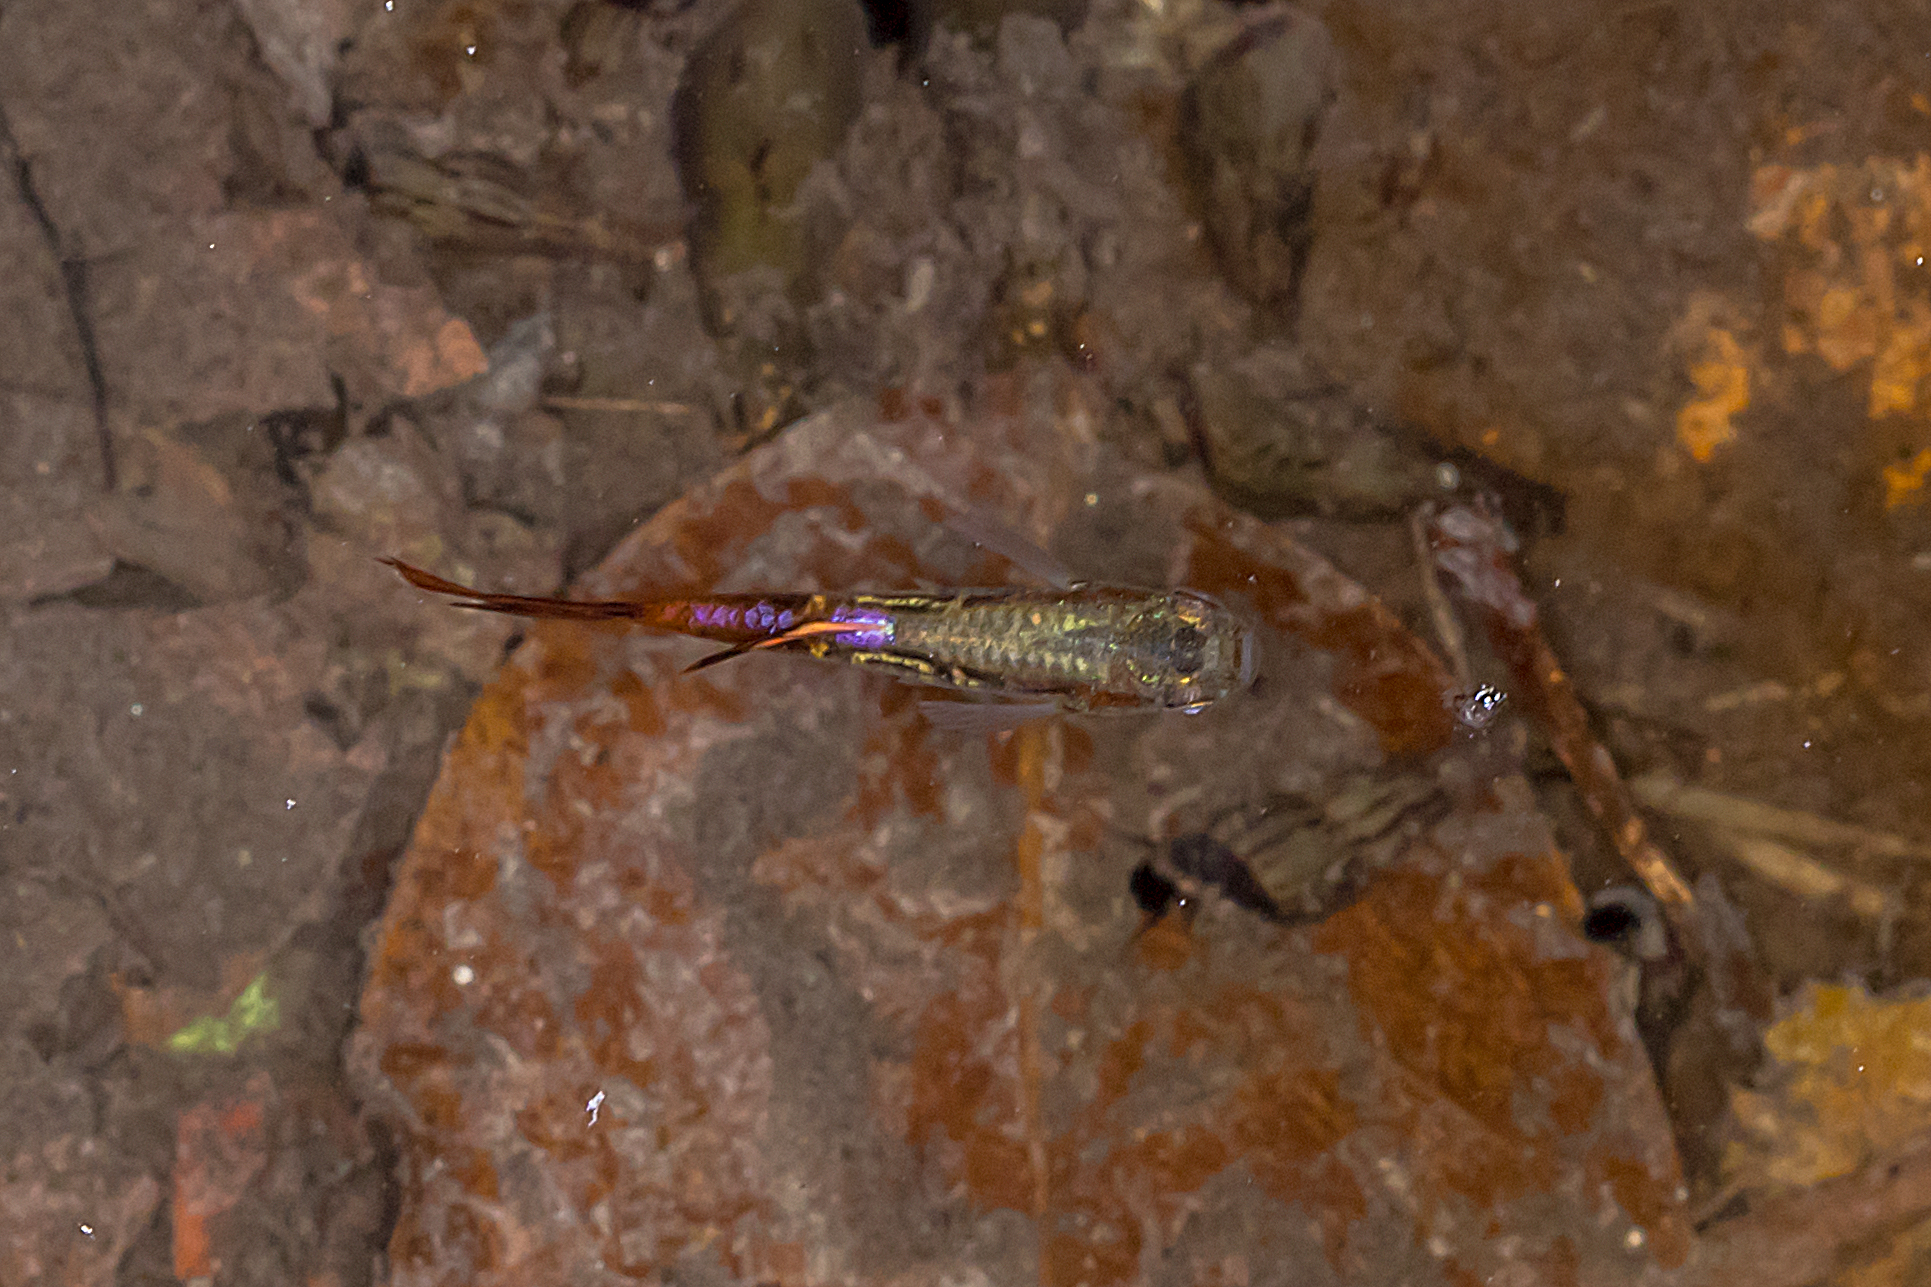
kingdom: Animalia
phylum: Chordata
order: Cyprinodontiformes
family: Poeciliidae
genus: Poecilia
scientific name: Poecilia reticulata
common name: Guppy
